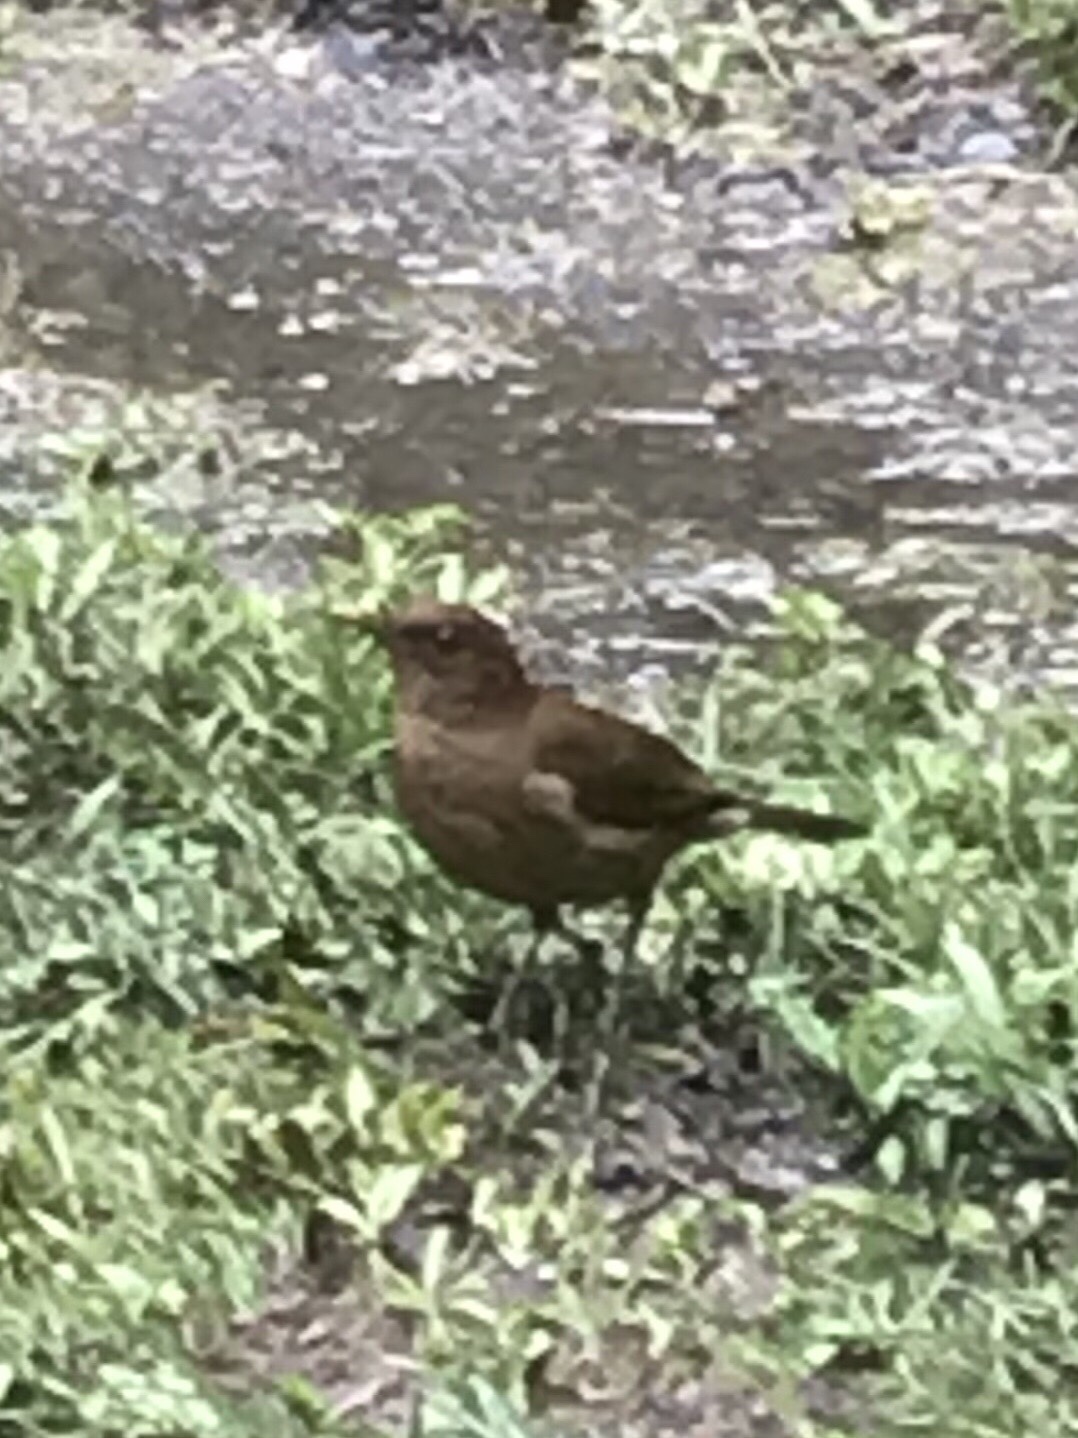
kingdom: Animalia
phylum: Chordata
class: Aves
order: Passeriformes
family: Turdidae
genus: Turdus
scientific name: Turdus grayi
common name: Clay-colored thrush
